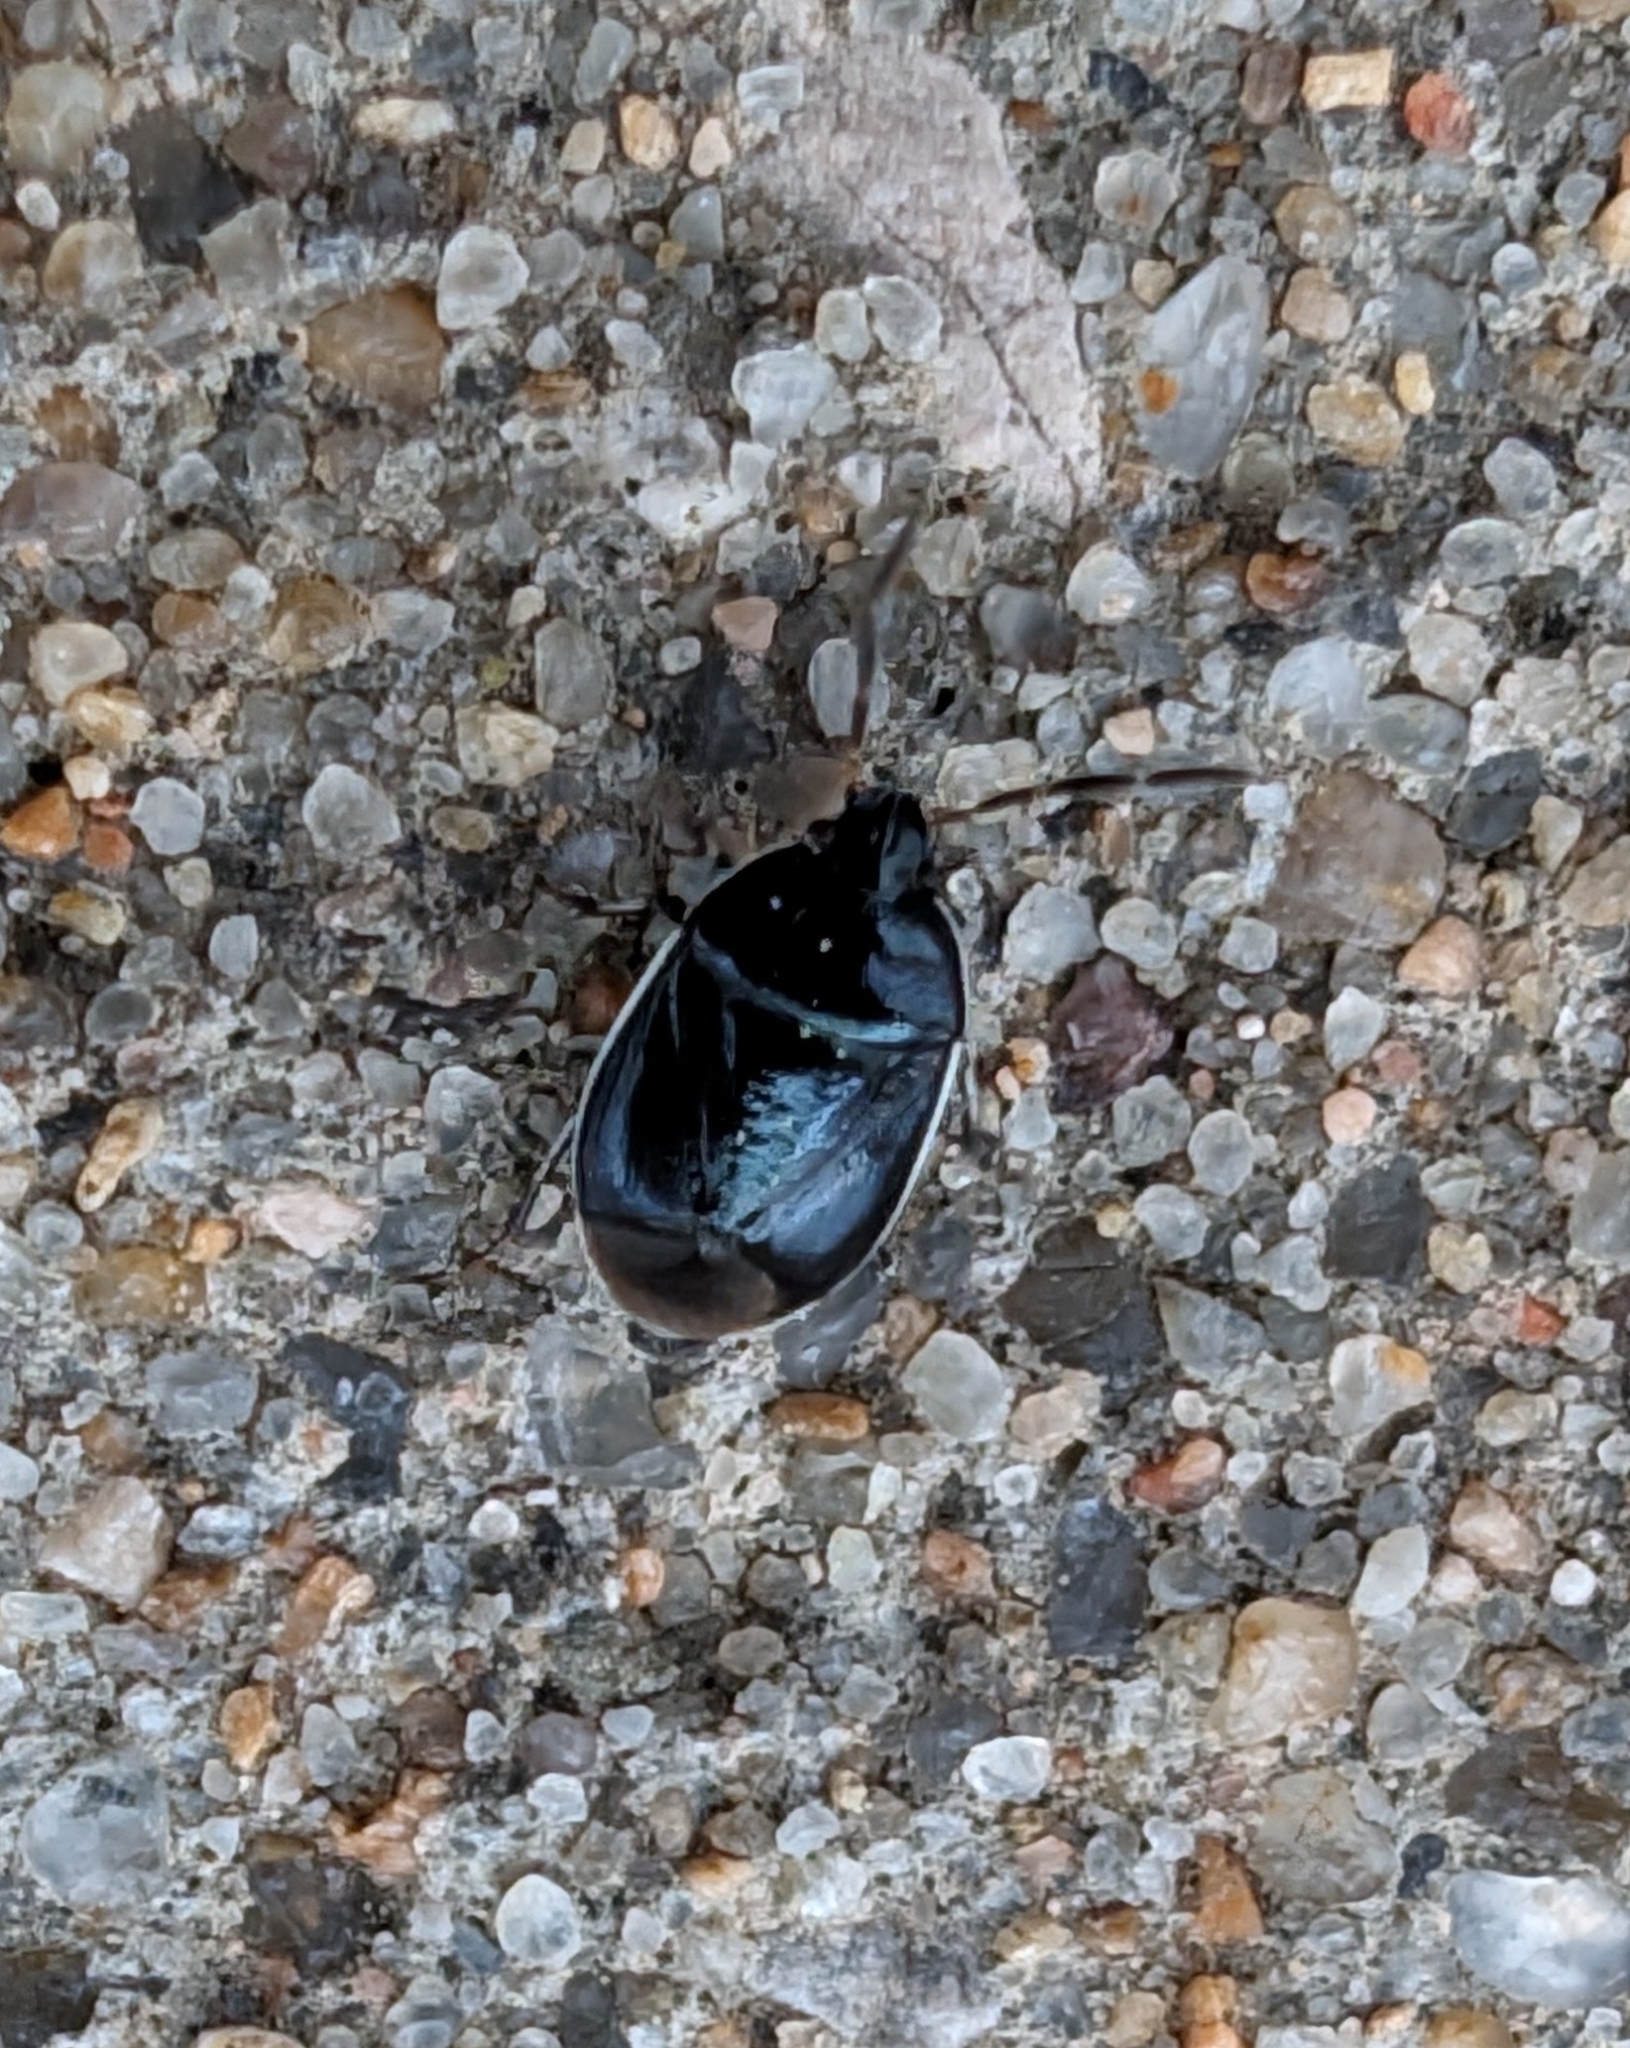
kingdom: Animalia
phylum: Arthropoda
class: Insecta
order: Hemiptera
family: Cydnidae
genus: Sehirus
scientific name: Sehirus cinctus
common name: White-margined burrower bug
